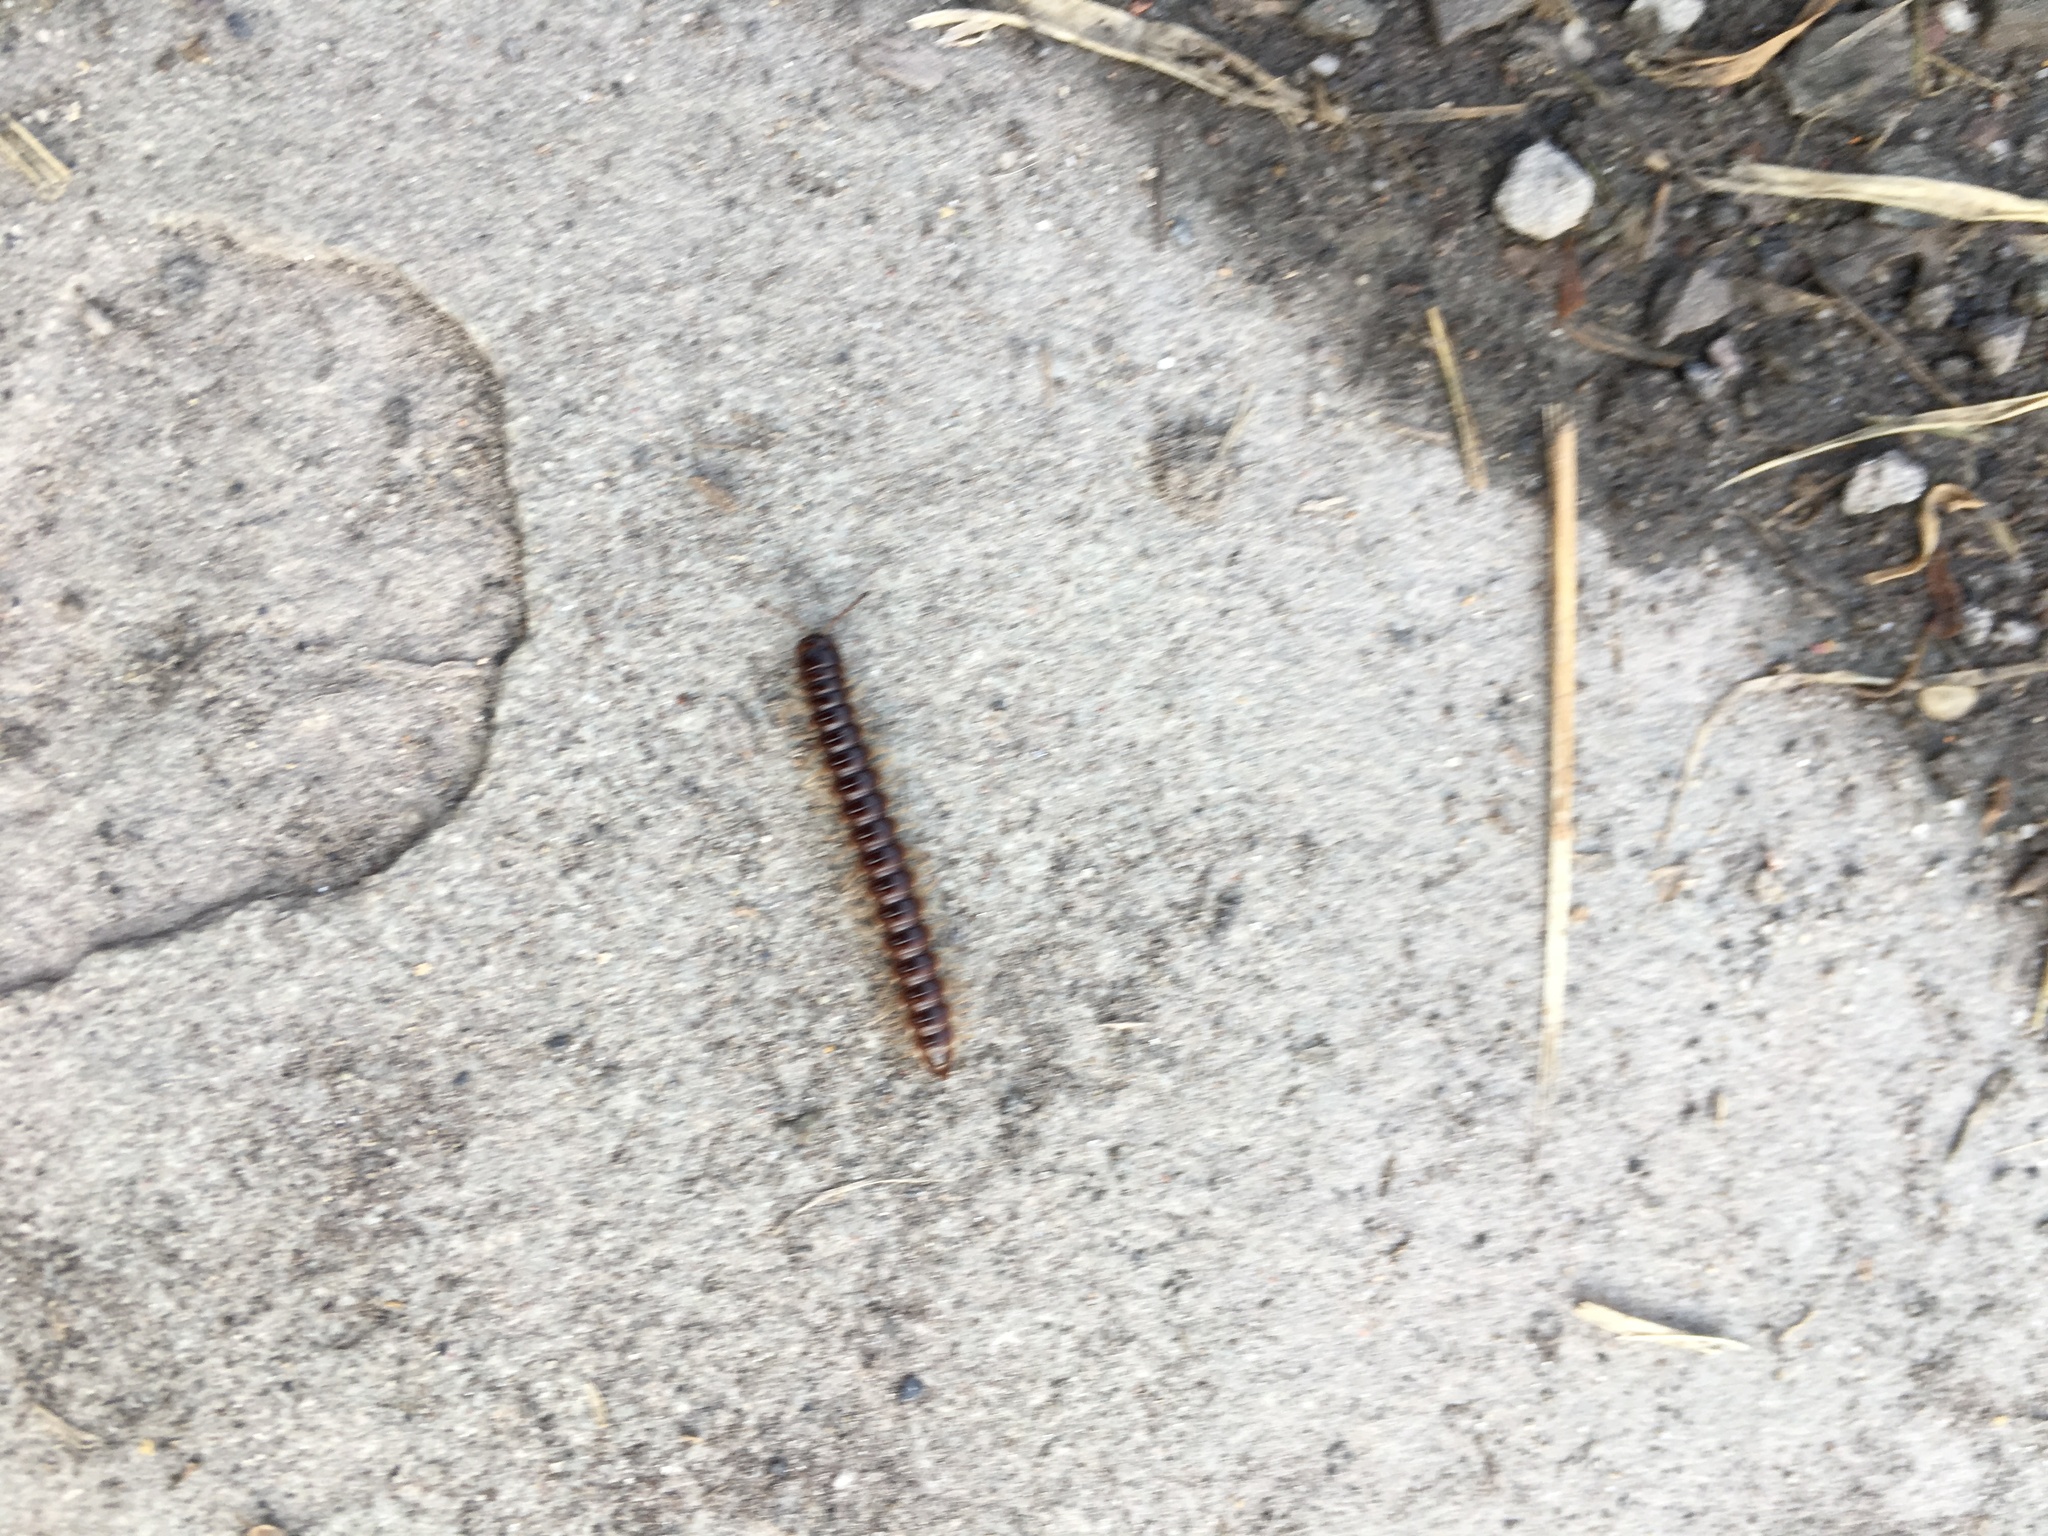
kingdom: Animalia
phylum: Arthropoda
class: Diplopoda
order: Polydesmida
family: Paradoxosomatidae
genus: Oxidus
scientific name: Oxidus gracilis
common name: Greenhouse millipede
